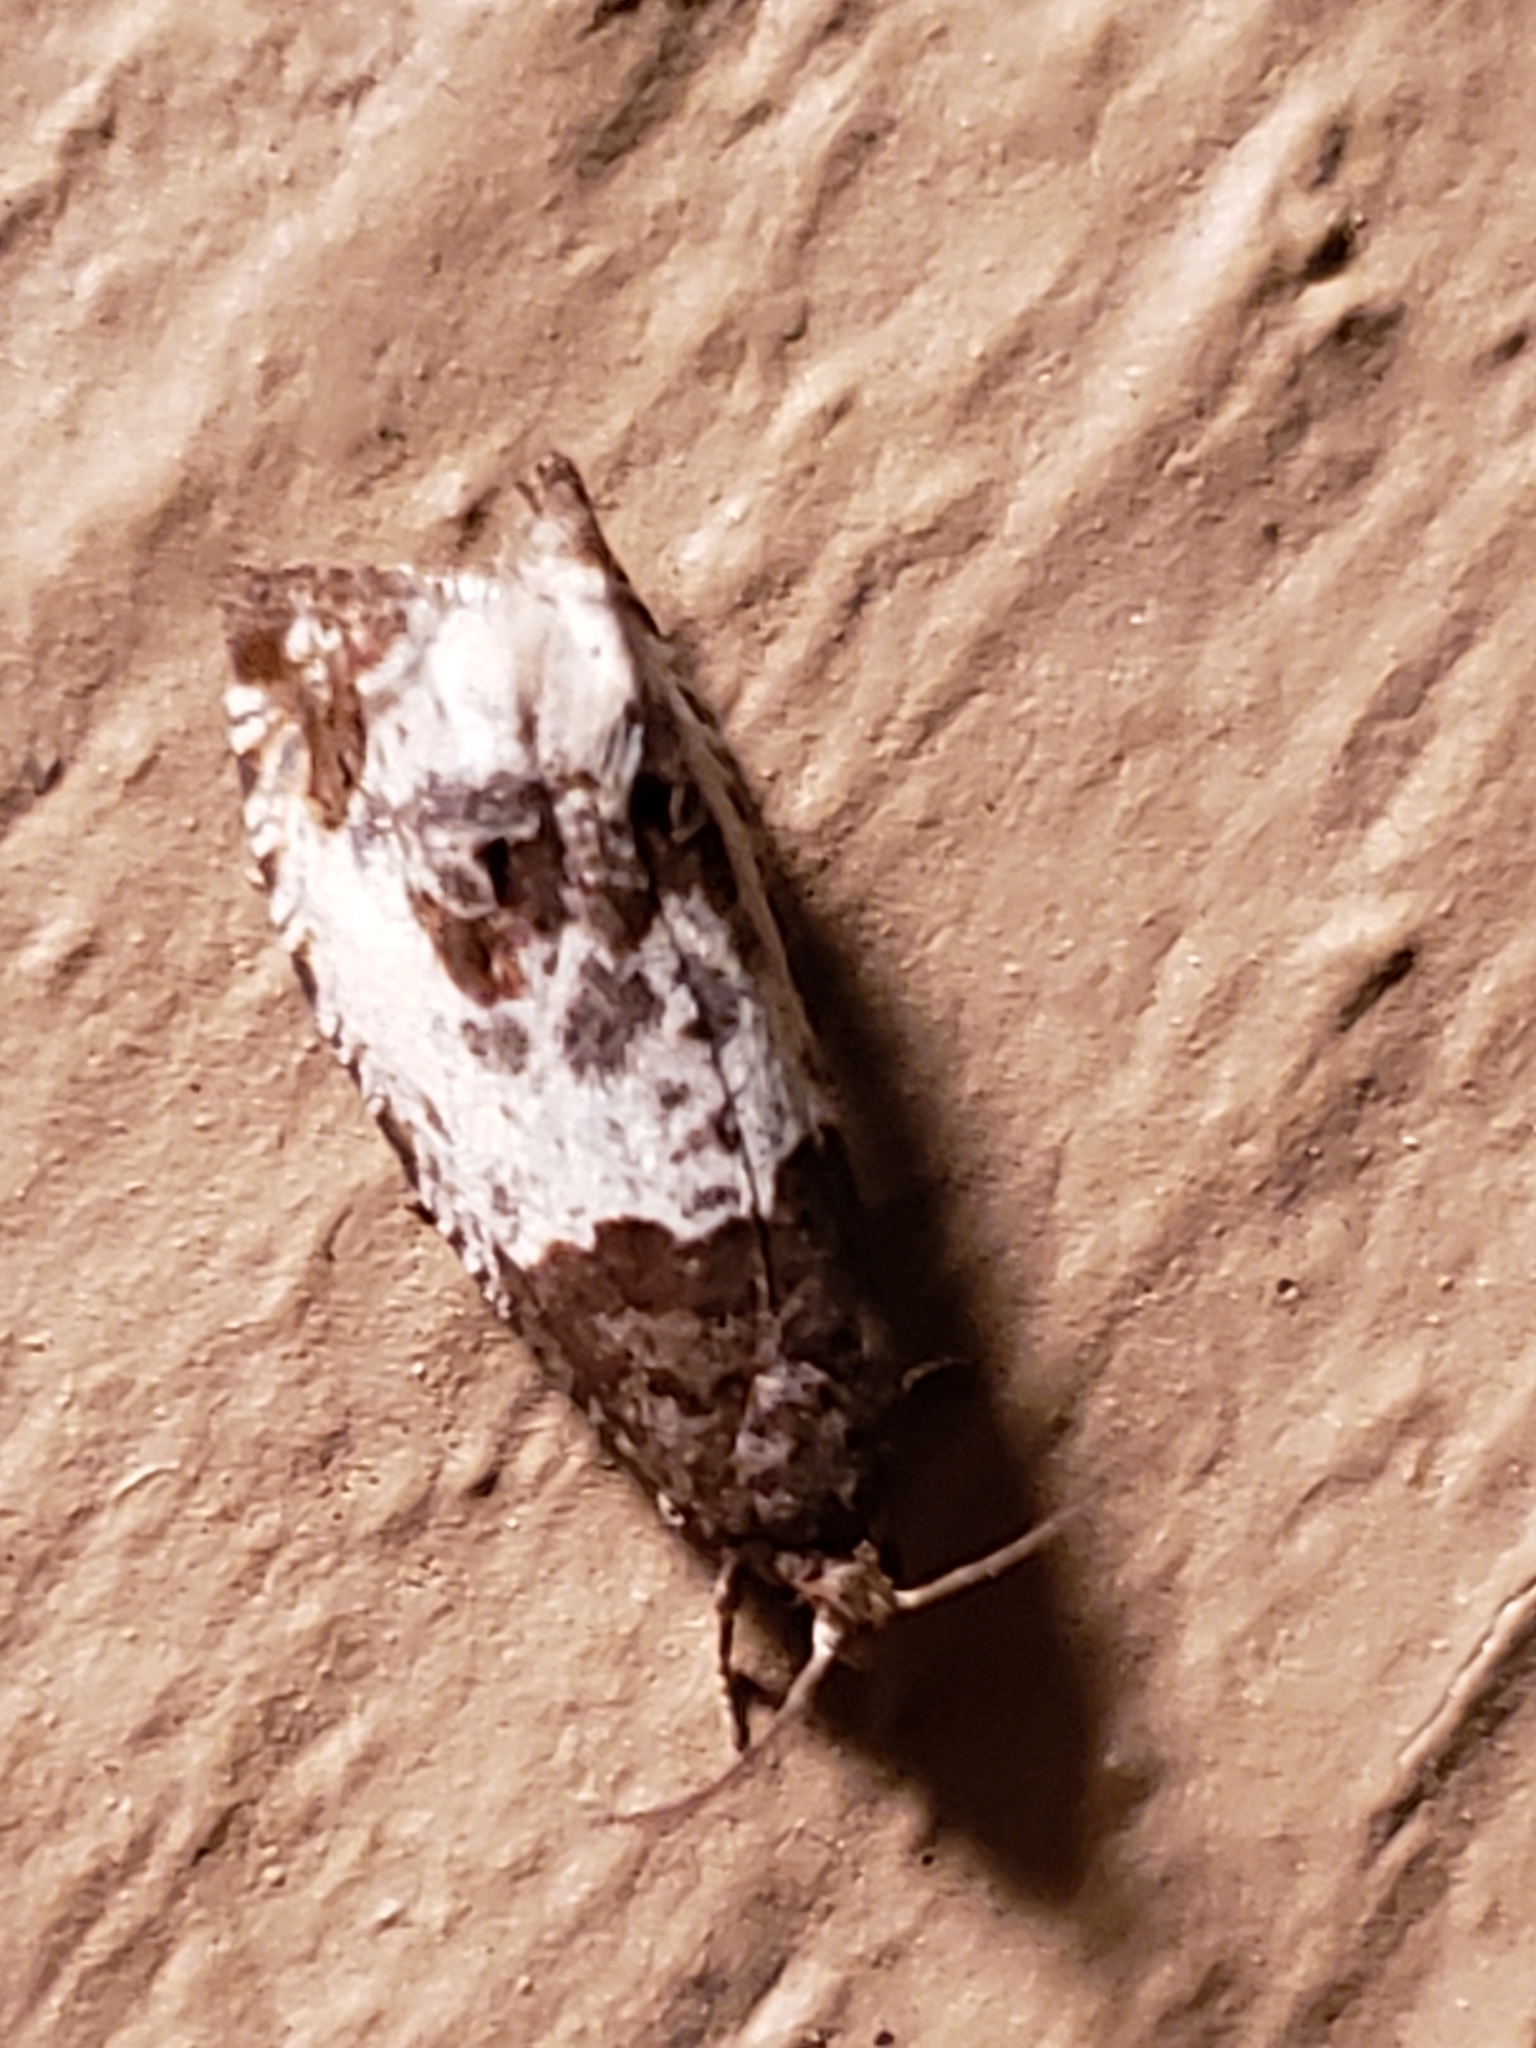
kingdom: Animalia
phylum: Arthropoda
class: Insecta
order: Lepidoptera
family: Tortricidae
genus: Notocelia
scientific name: Notocelia rosaecolana
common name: Common rose bell
